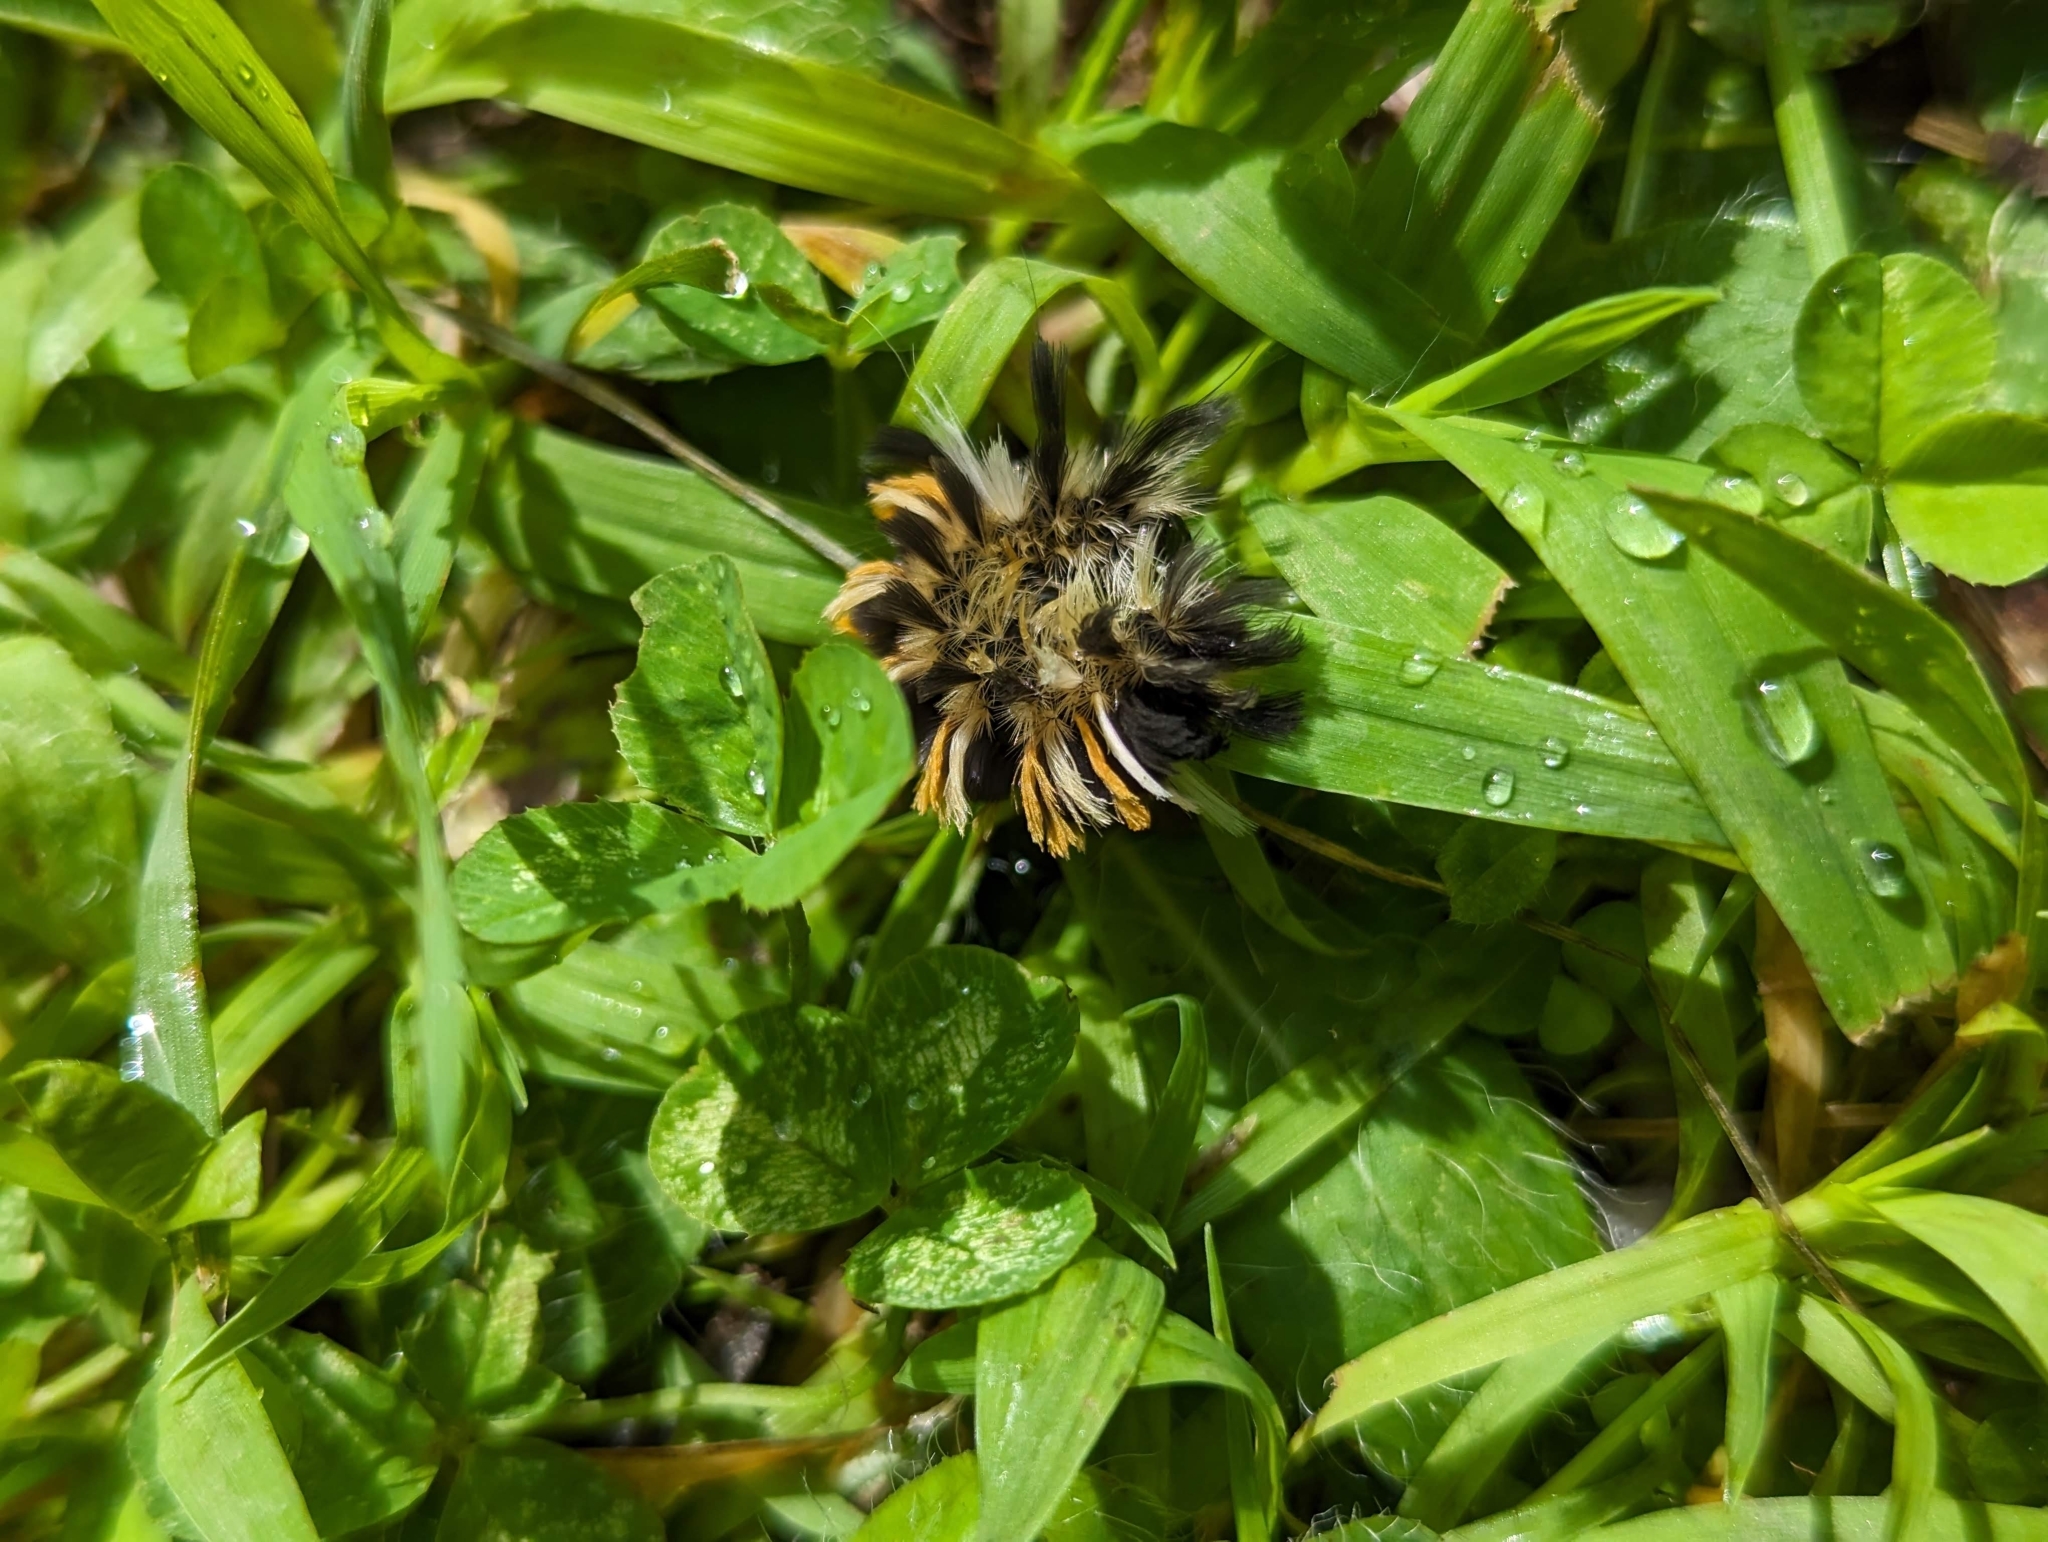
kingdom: Animalia
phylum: Arthropoda
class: Insecta
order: Lepidoptera
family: Erebidae
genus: Euchaetes
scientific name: Euchaetes egle
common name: Milkweed tussock moth
